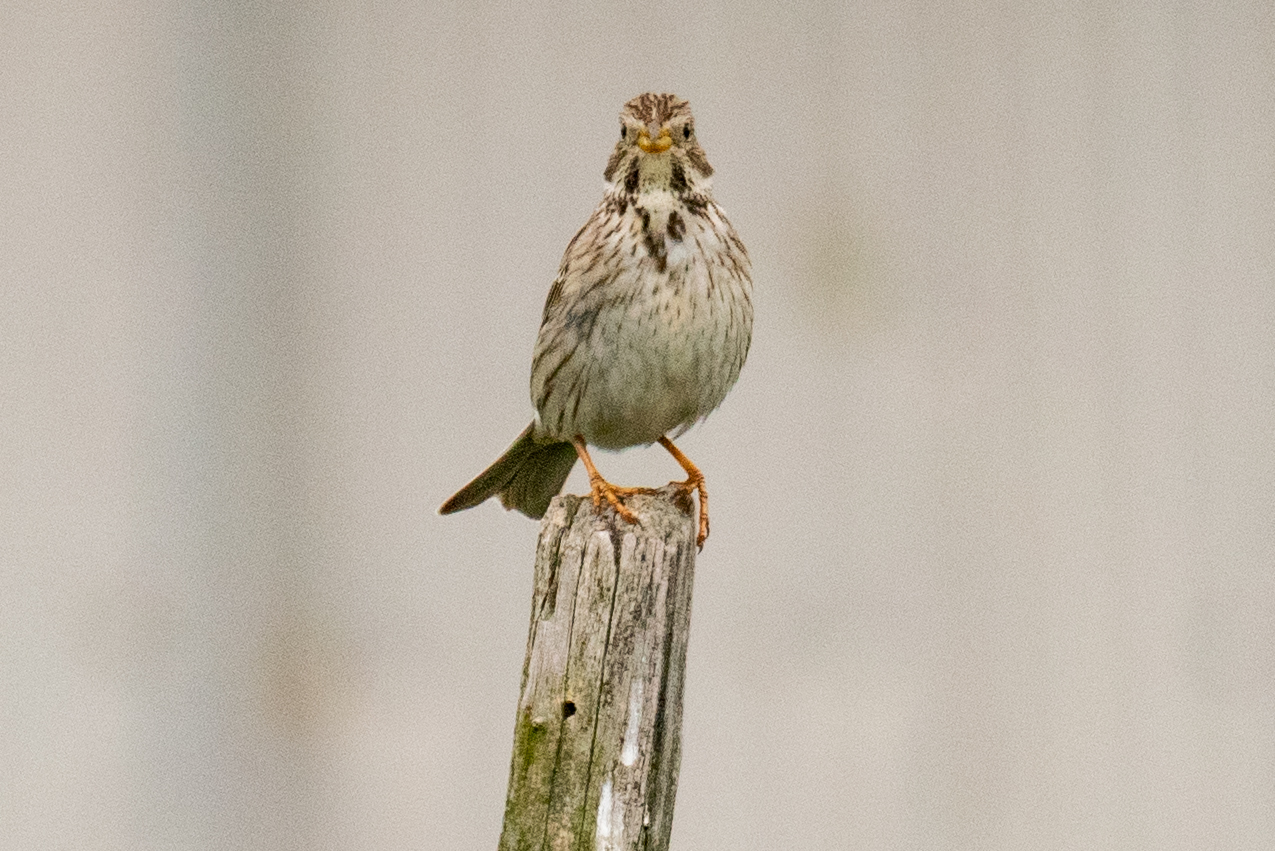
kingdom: Animalia
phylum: Chordata
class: Aves
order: Passeriformes
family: Emberizidae
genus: Emberiza
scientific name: Emberiza calandra
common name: Corn bunting
